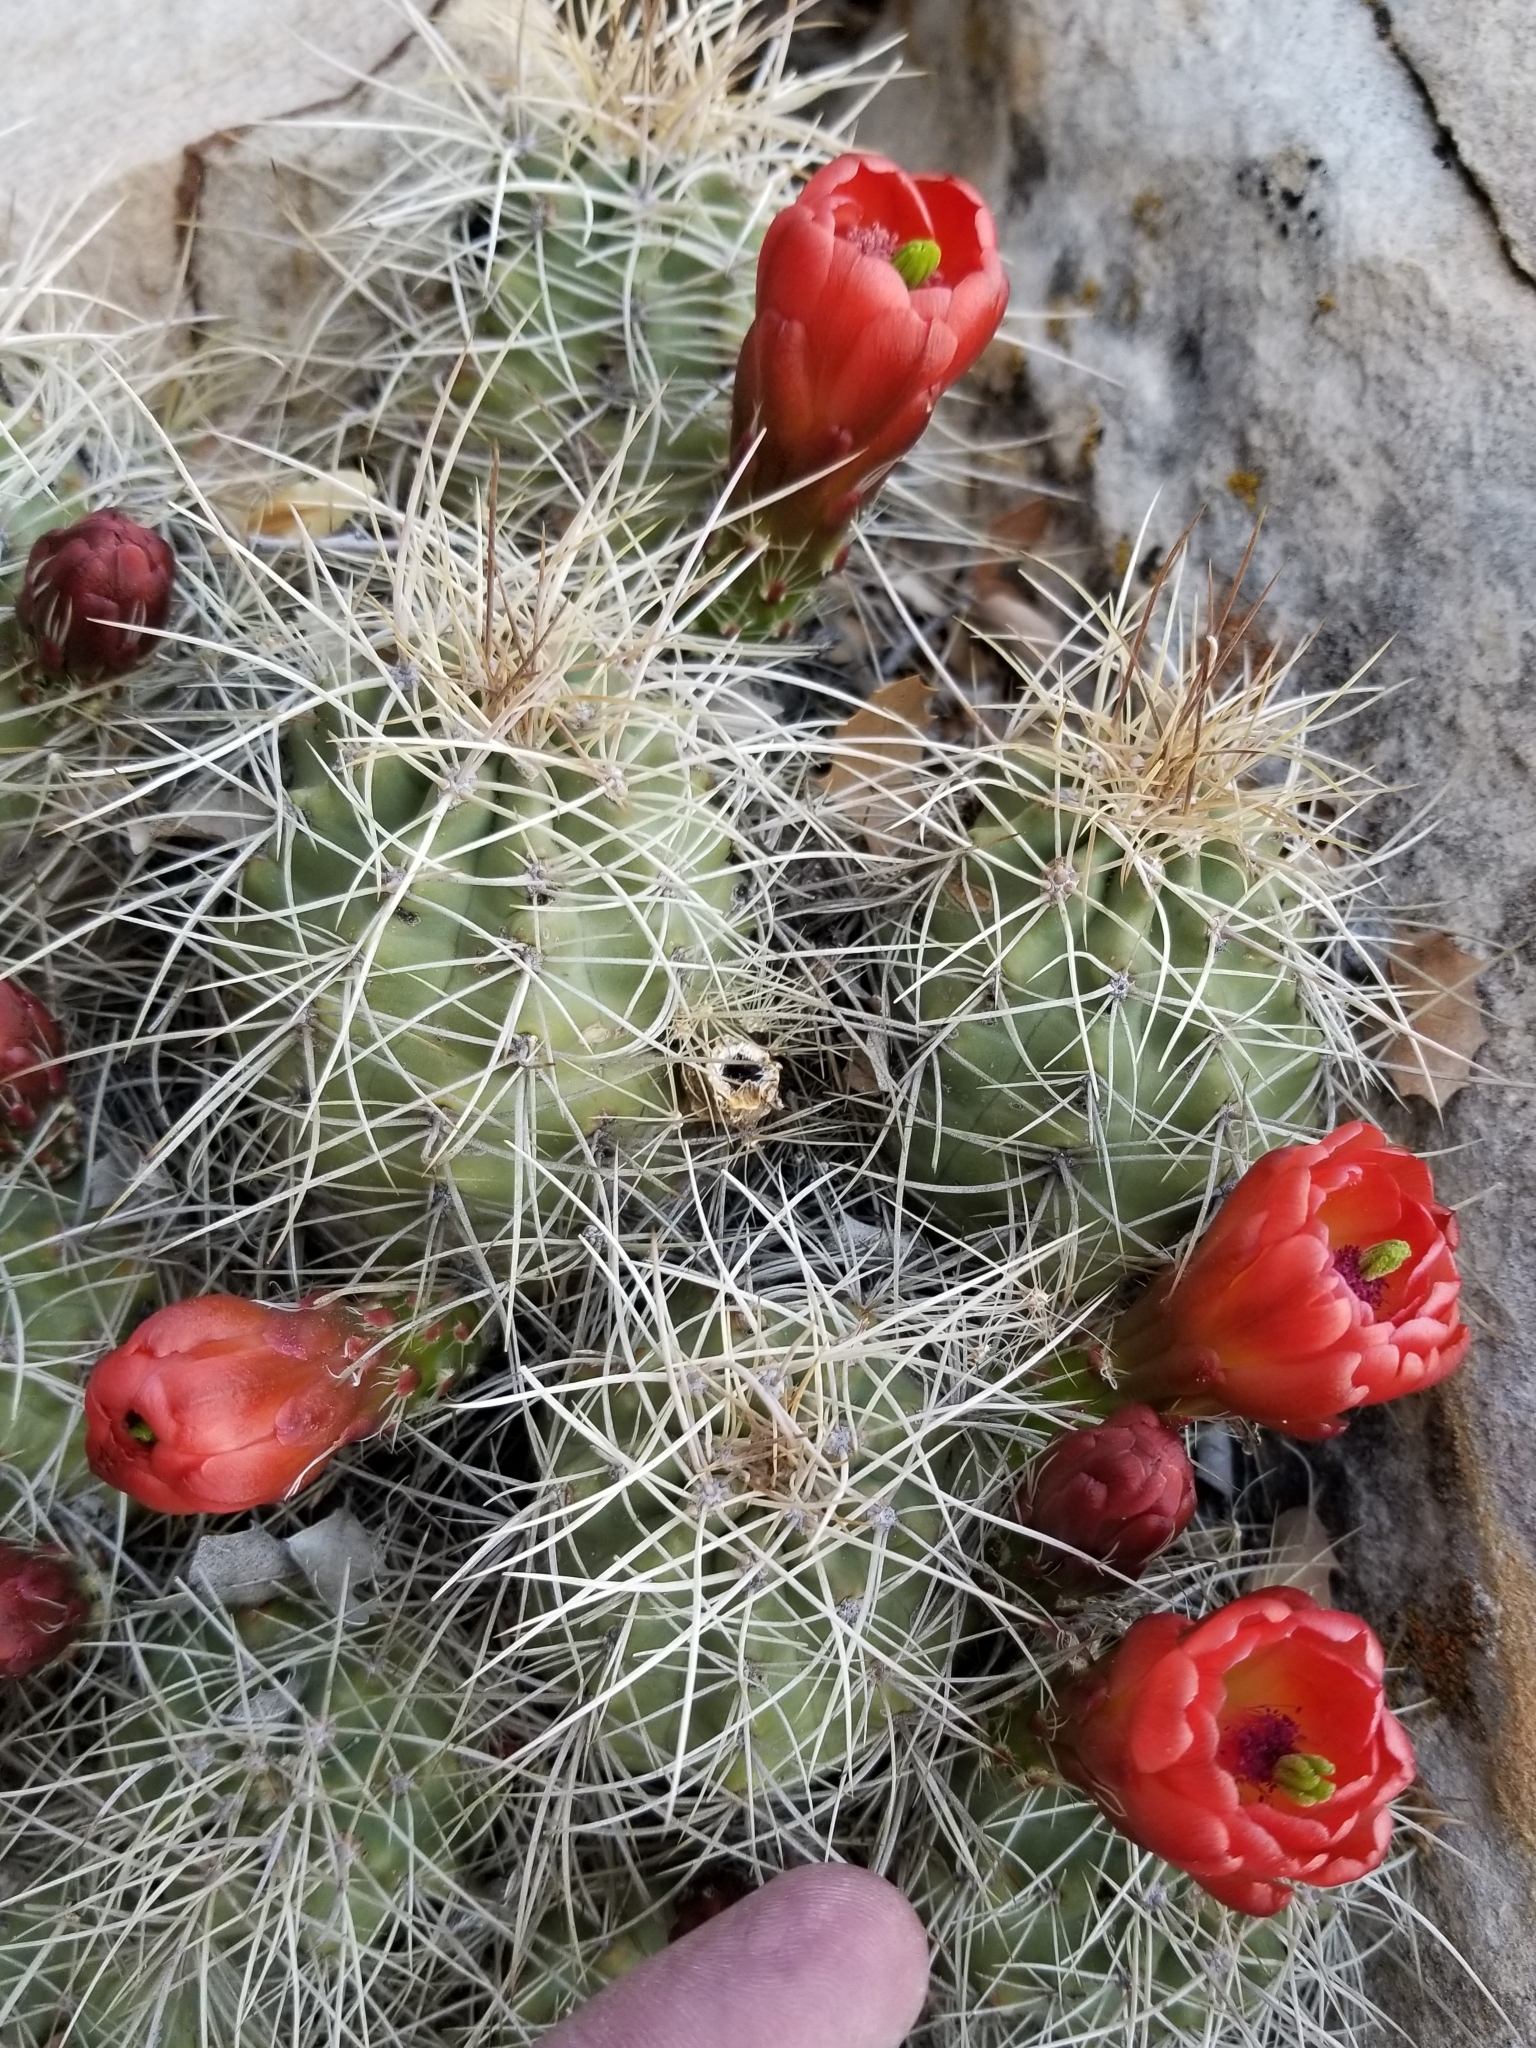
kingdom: Plantae
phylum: Tracheophyta
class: Magnoliopsida
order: Caryophyllales
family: Cactaceae
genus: Echinocereus
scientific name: Echinocereus triglochidiatus
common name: Claretcup hedgehog
